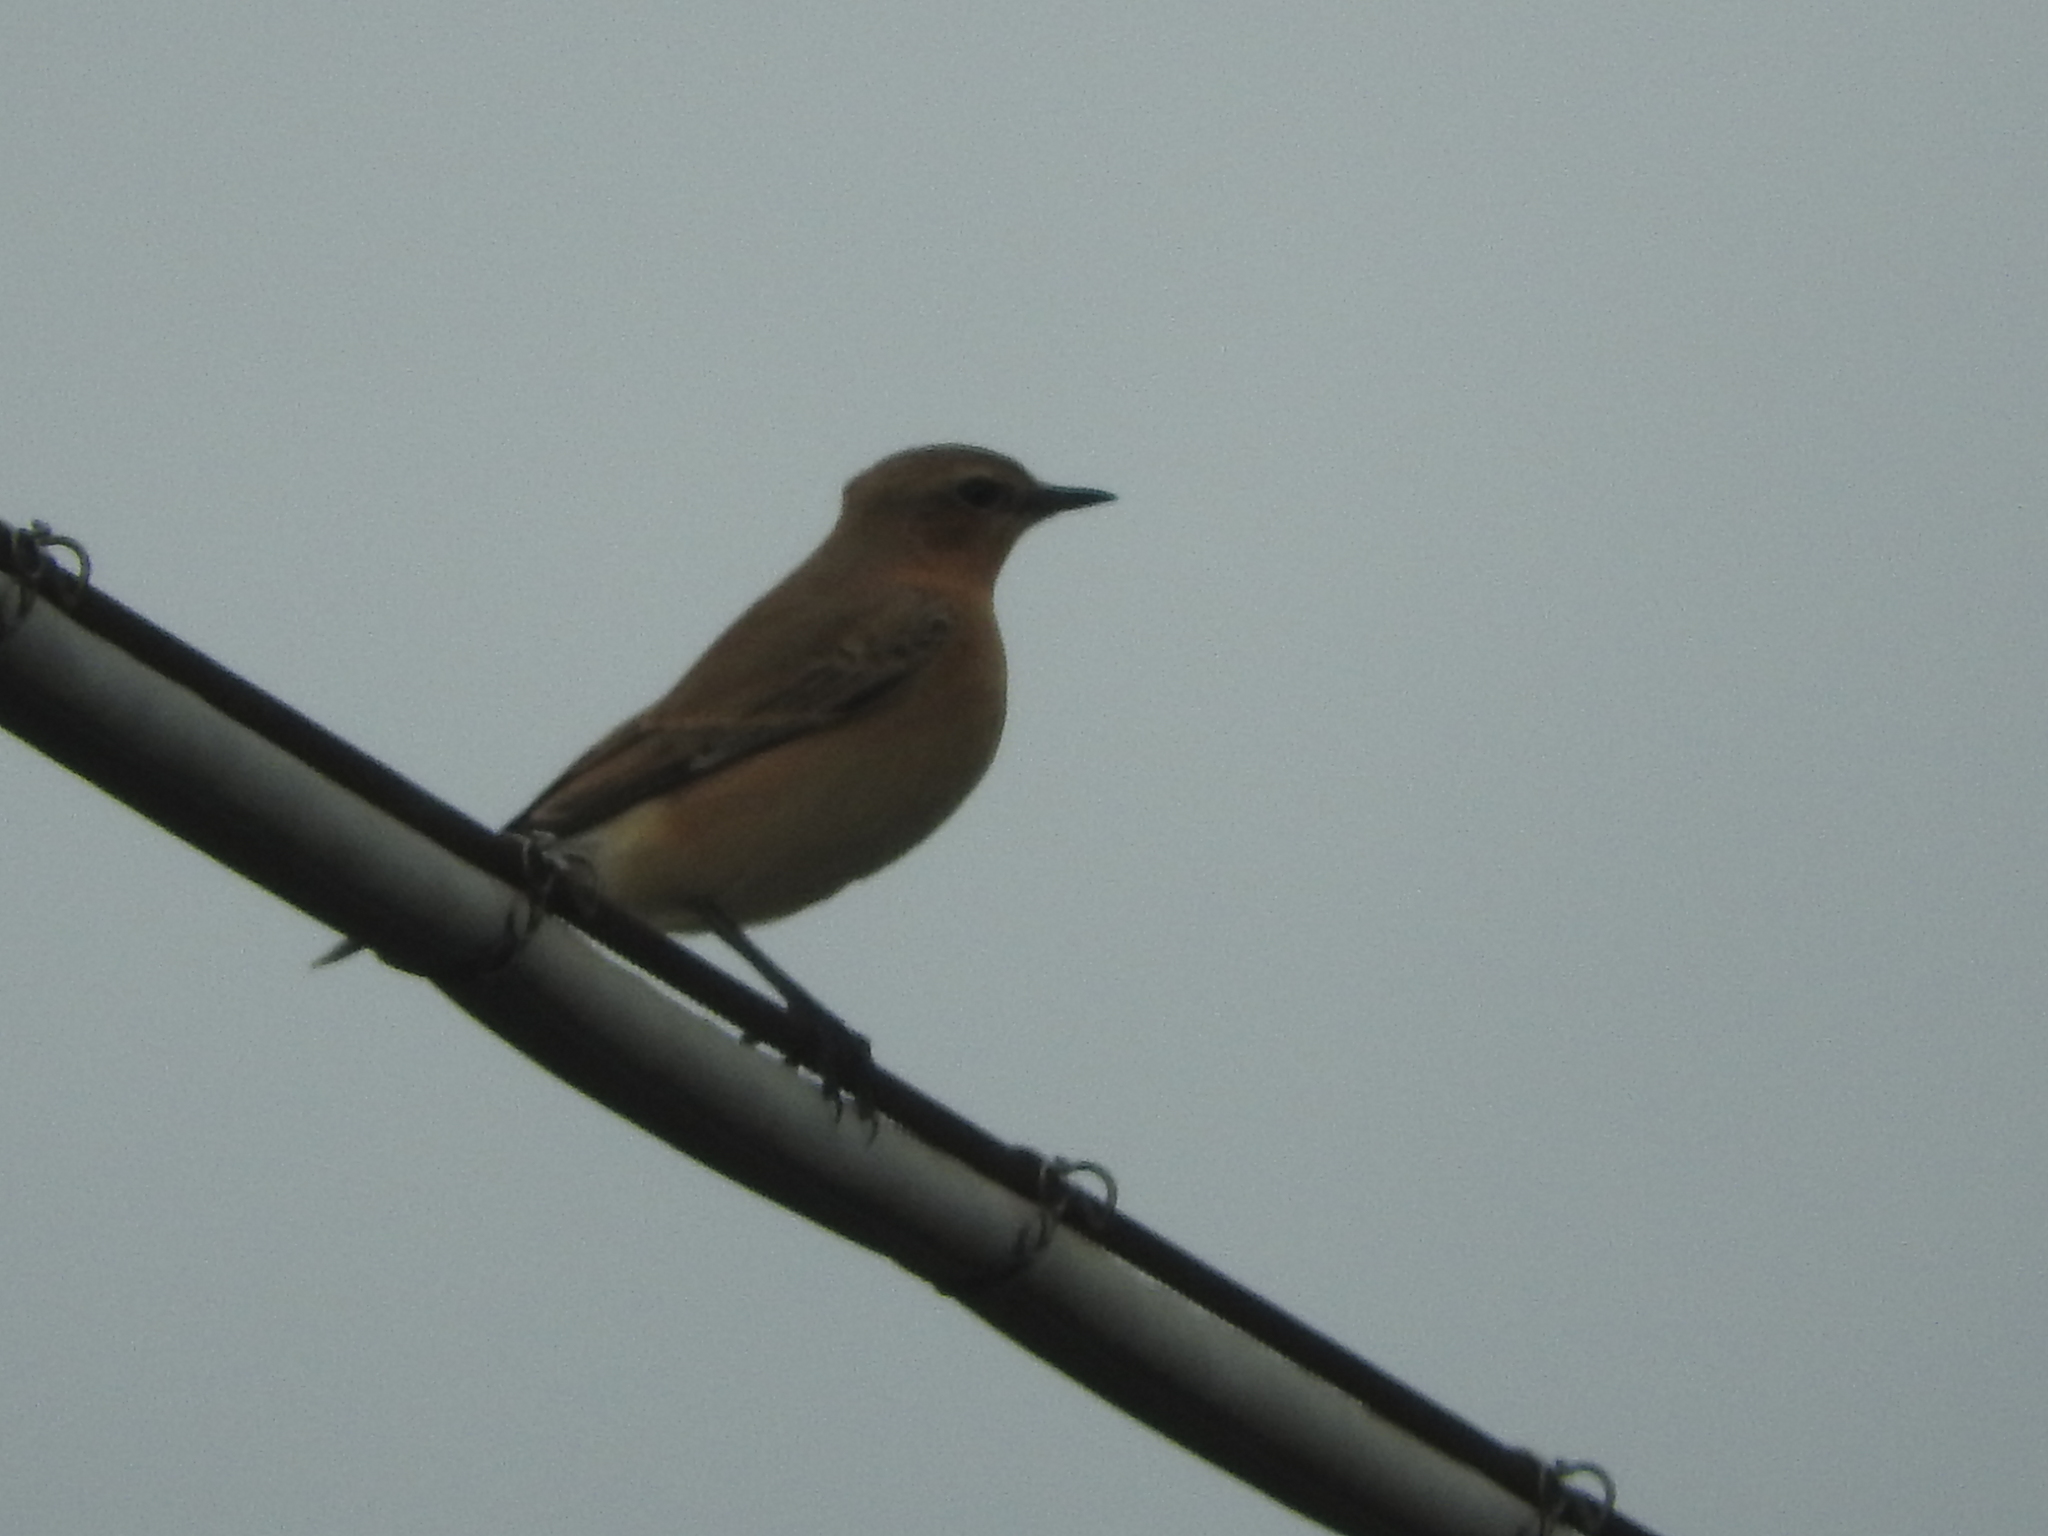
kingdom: Animalia
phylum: Chordata
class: Aves
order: Passeriformes
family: Muscicapidae
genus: Oenanthe
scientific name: Oenanthe oenanthe
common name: Northern wheatear
